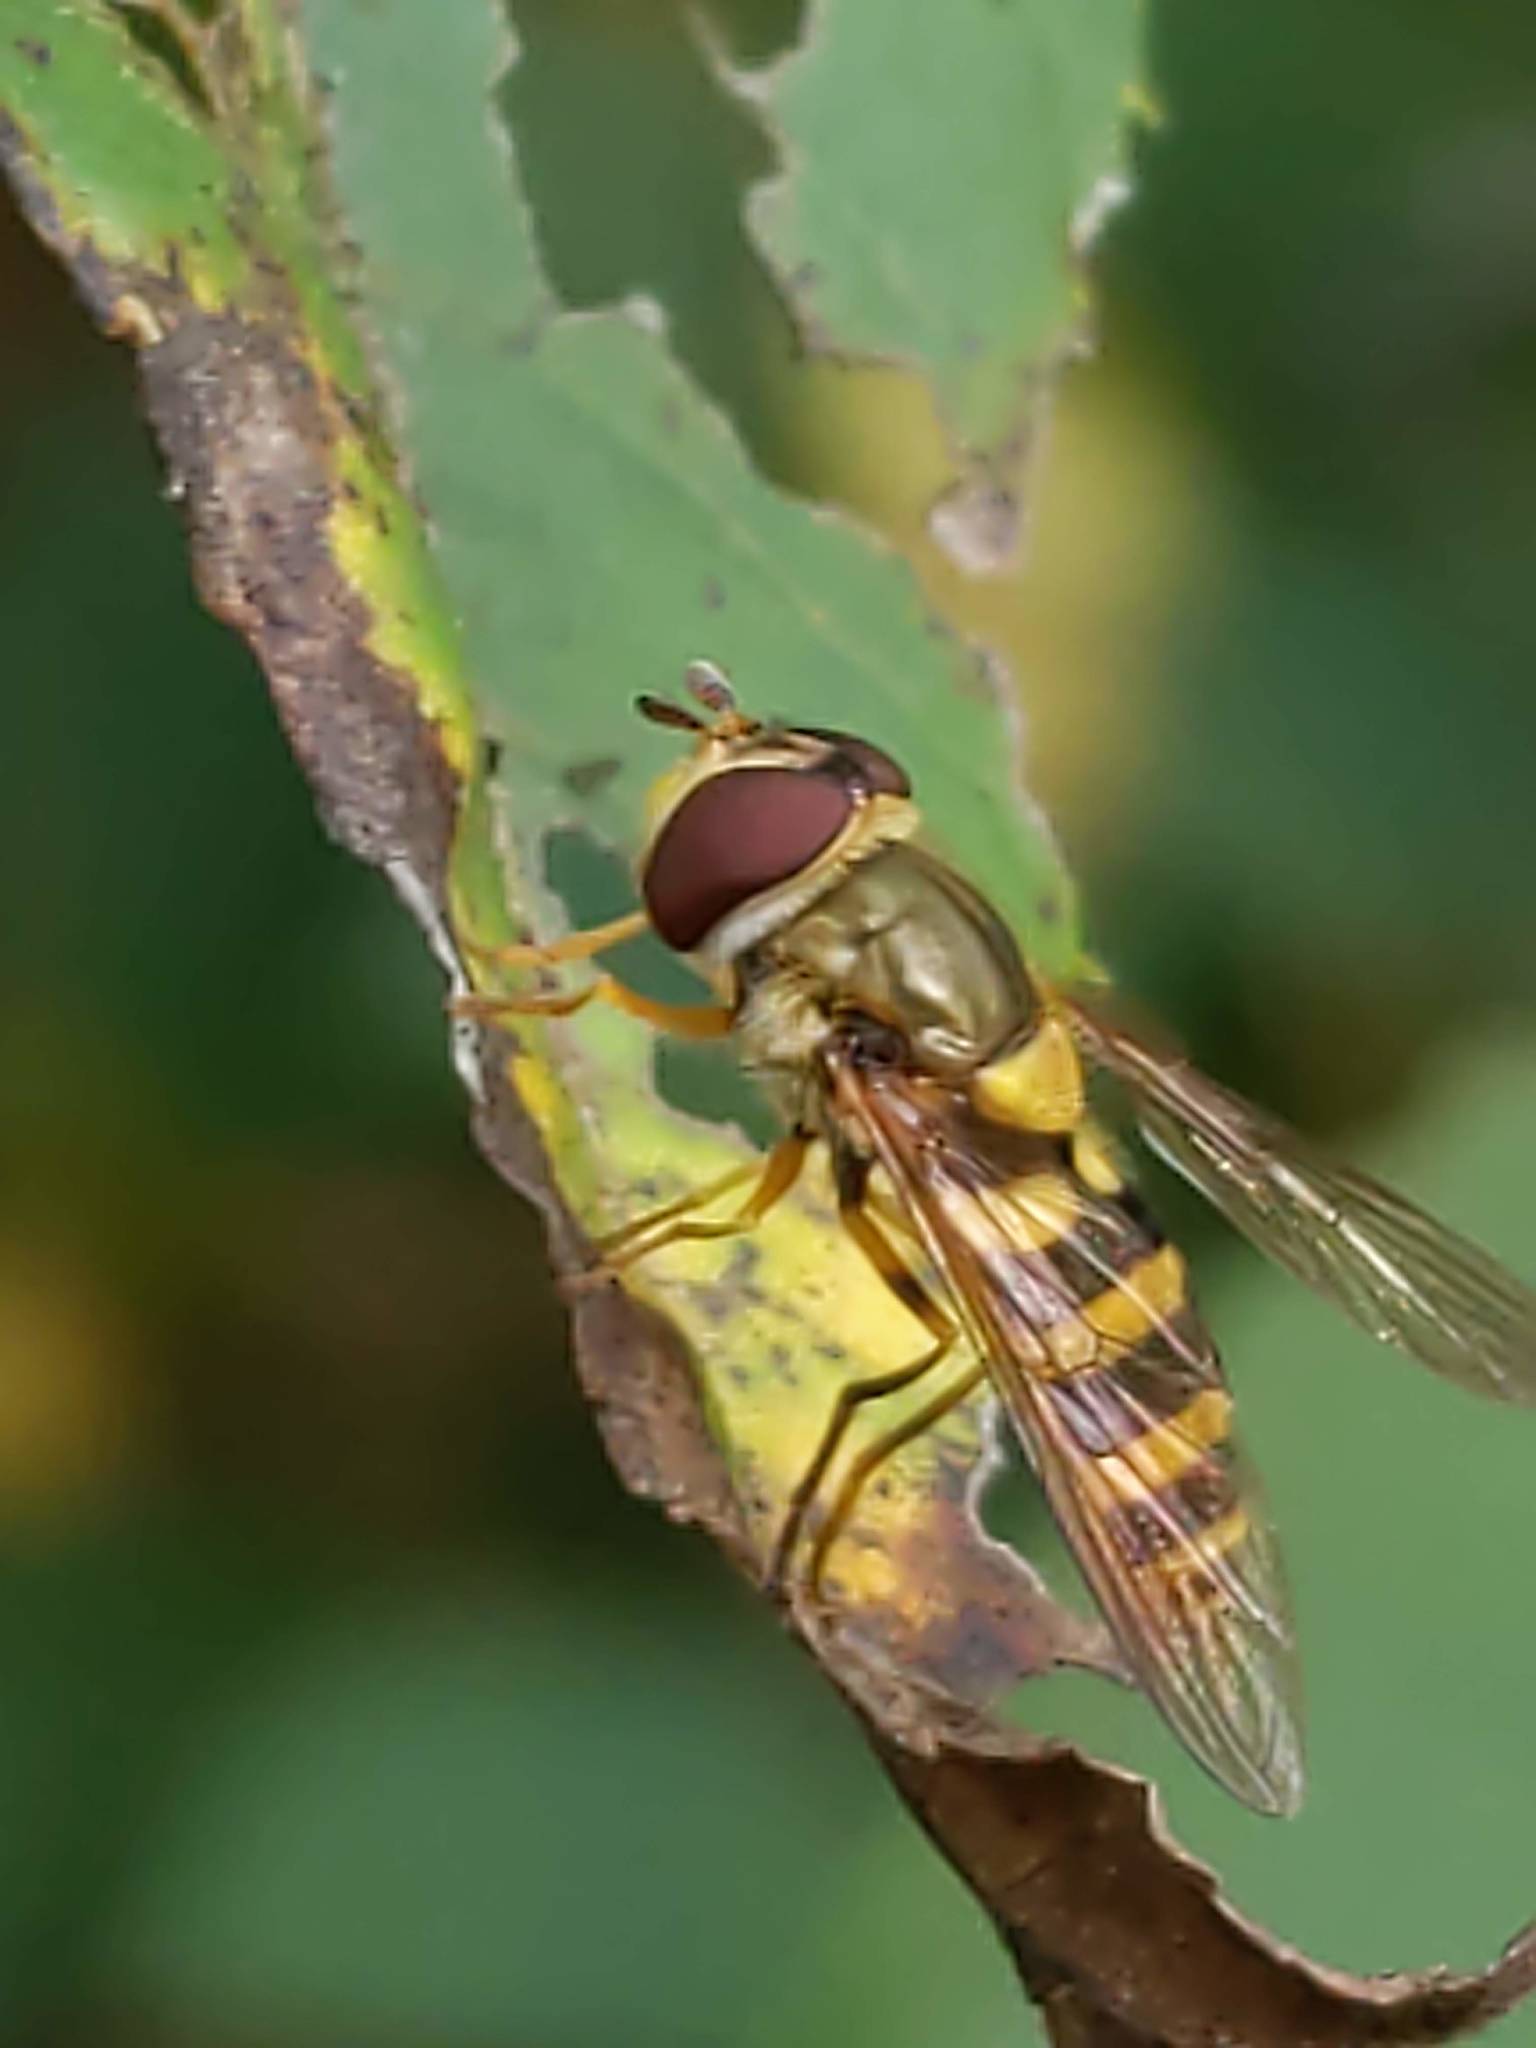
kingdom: Animalia
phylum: Arthropoda
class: Insecta
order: Diptera
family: Syrphidae
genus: Syrphus
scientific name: Syrphus rectus
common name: Yellow-legged flower fly
